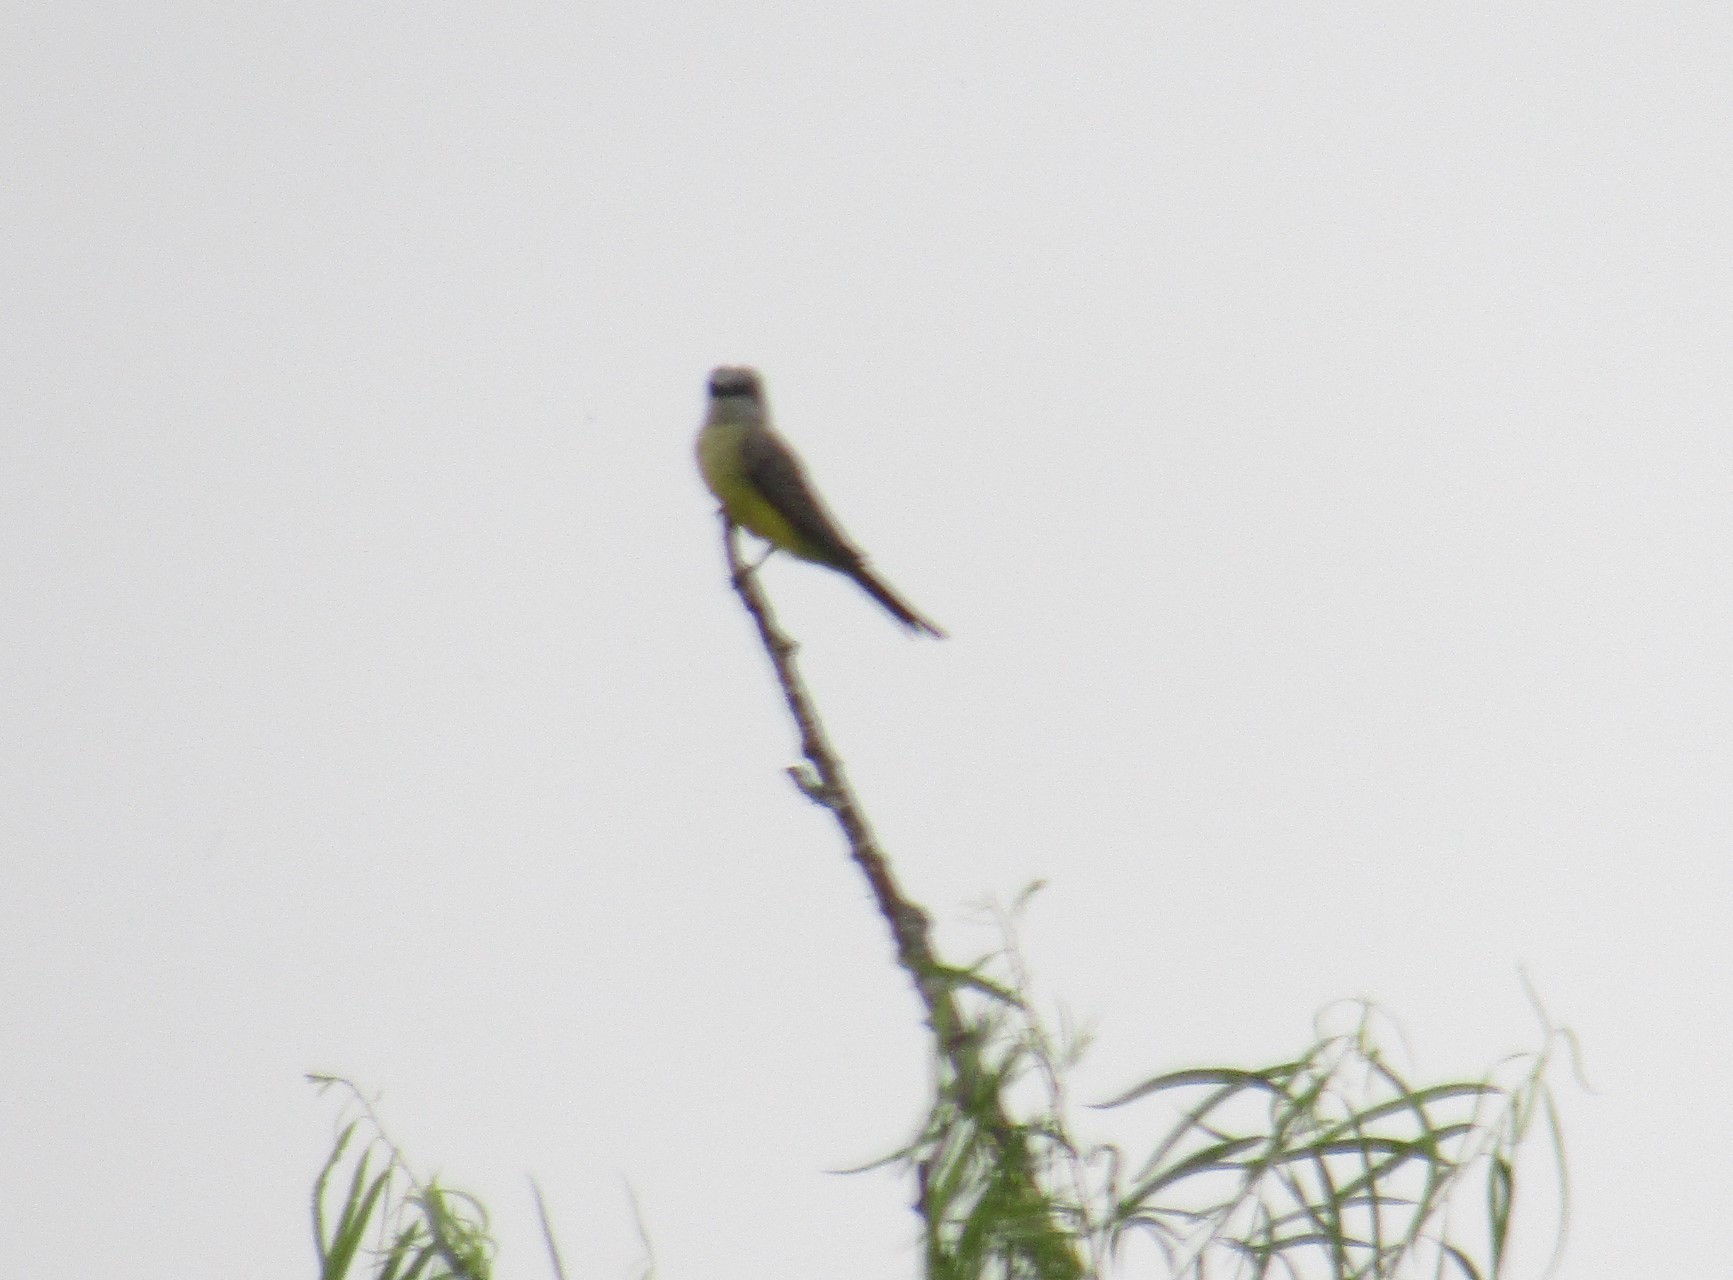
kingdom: Animalia
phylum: Chordata
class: Aves
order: Passeriformes
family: Tyrannidae
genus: Tyrannus
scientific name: Tyrannus melancholicus
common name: Tropical kingbird
